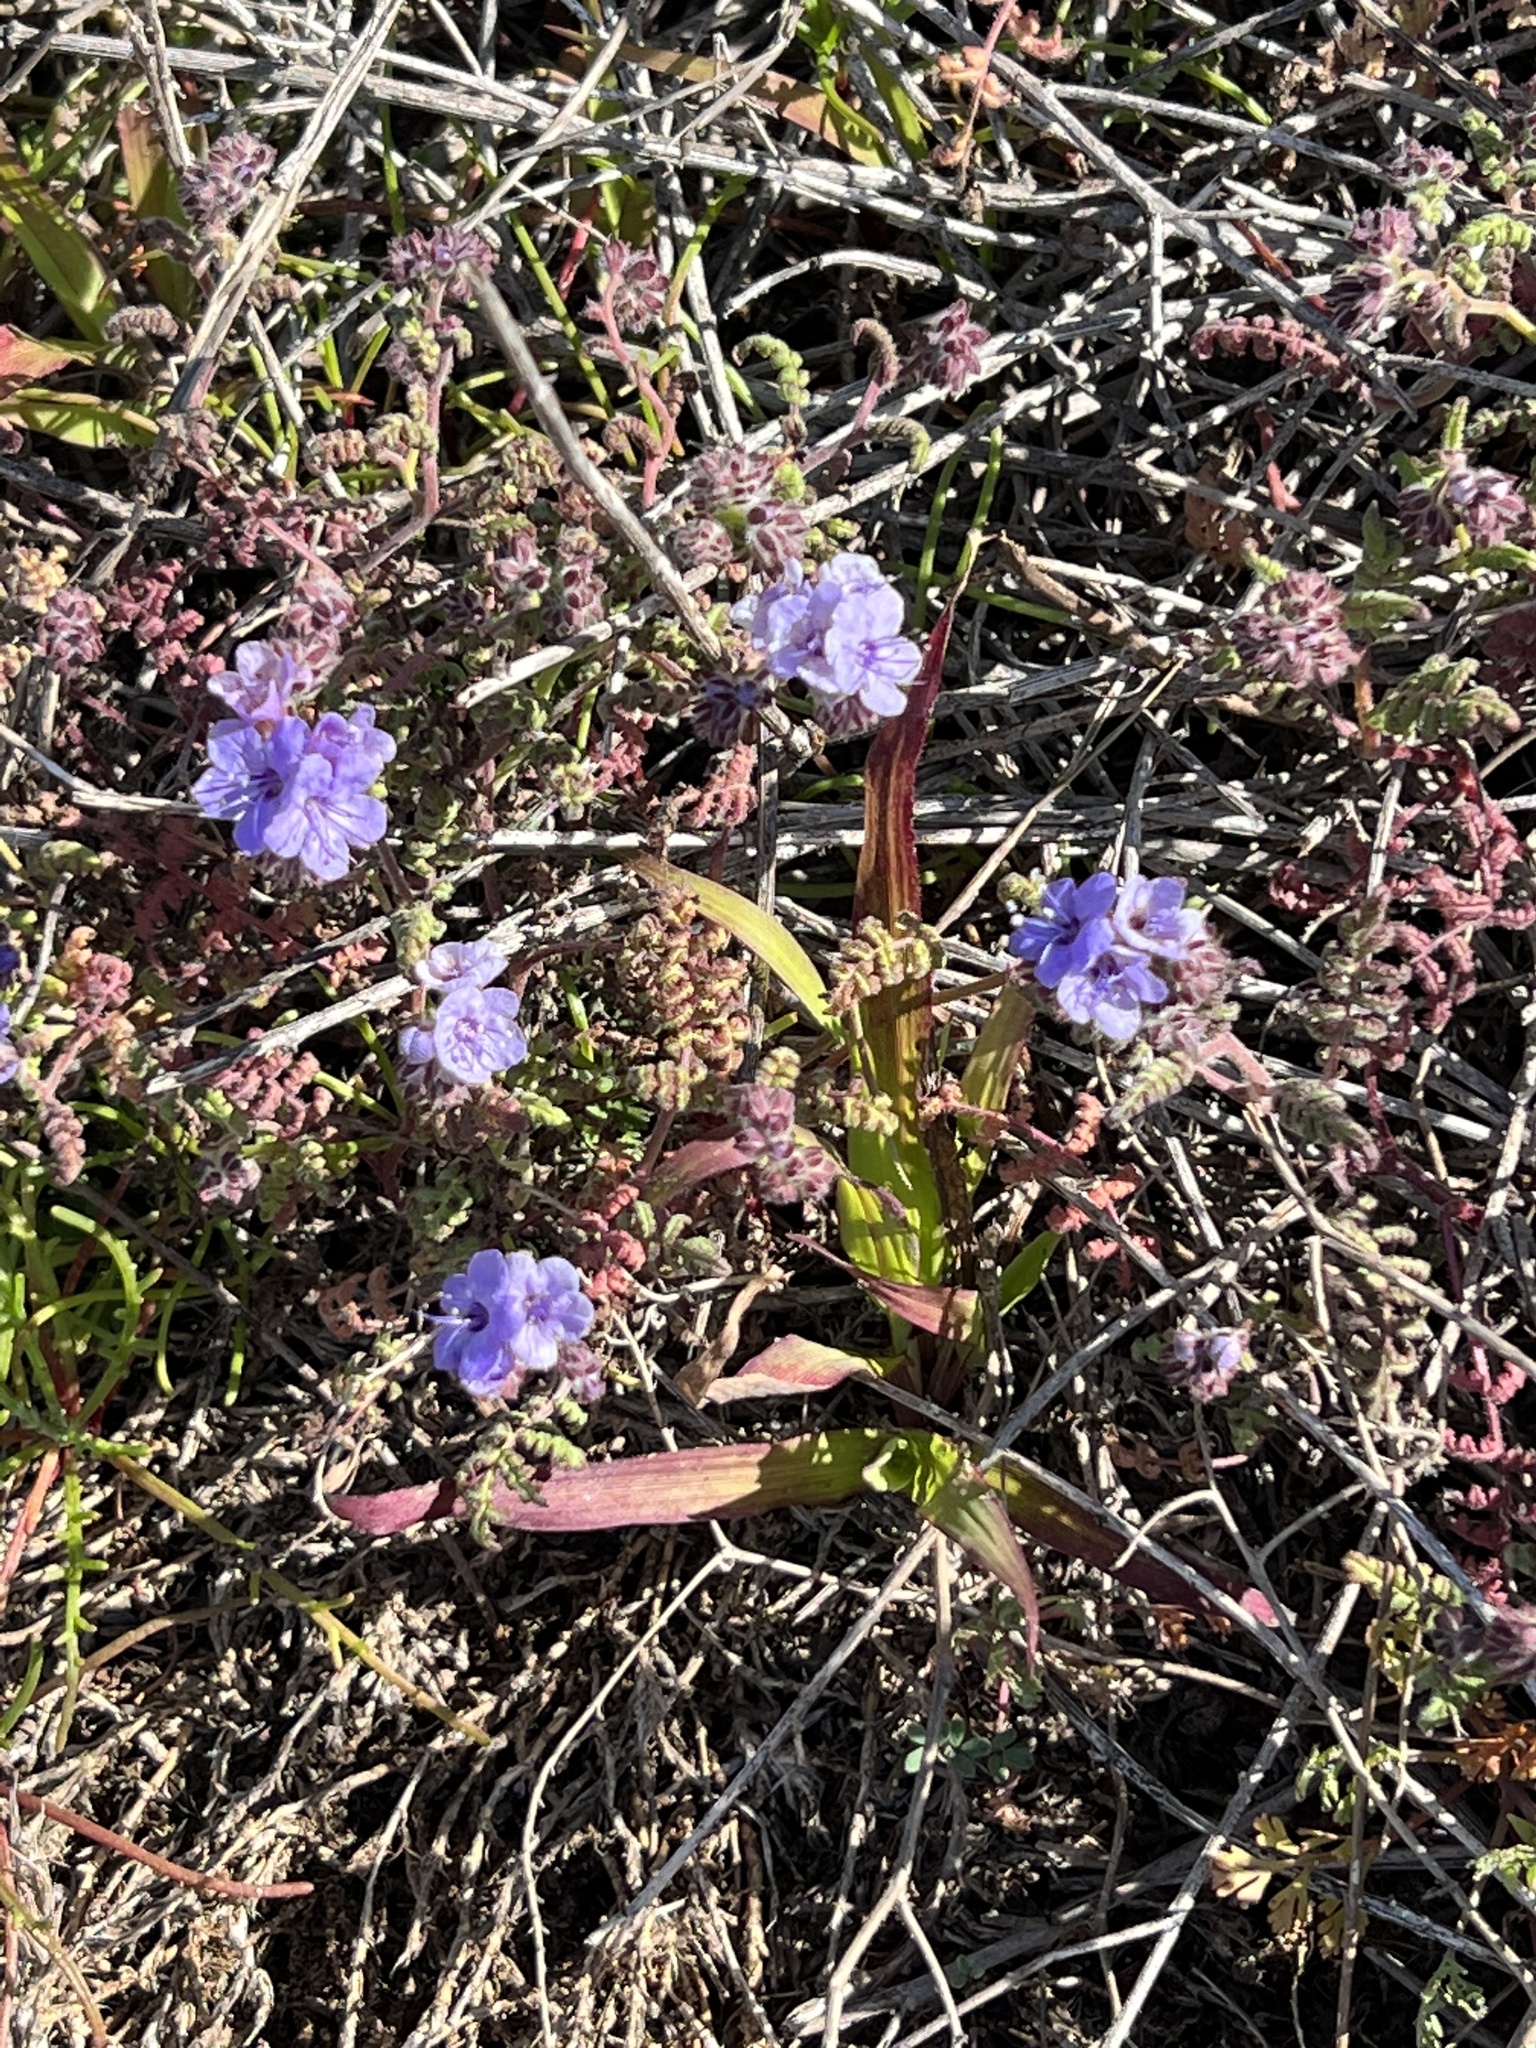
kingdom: Plantae
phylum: Tracheophyta
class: Magnoliopsida
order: Boraginales
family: Hydrophyllaceae
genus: Phacelia
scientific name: Phacelia distans
